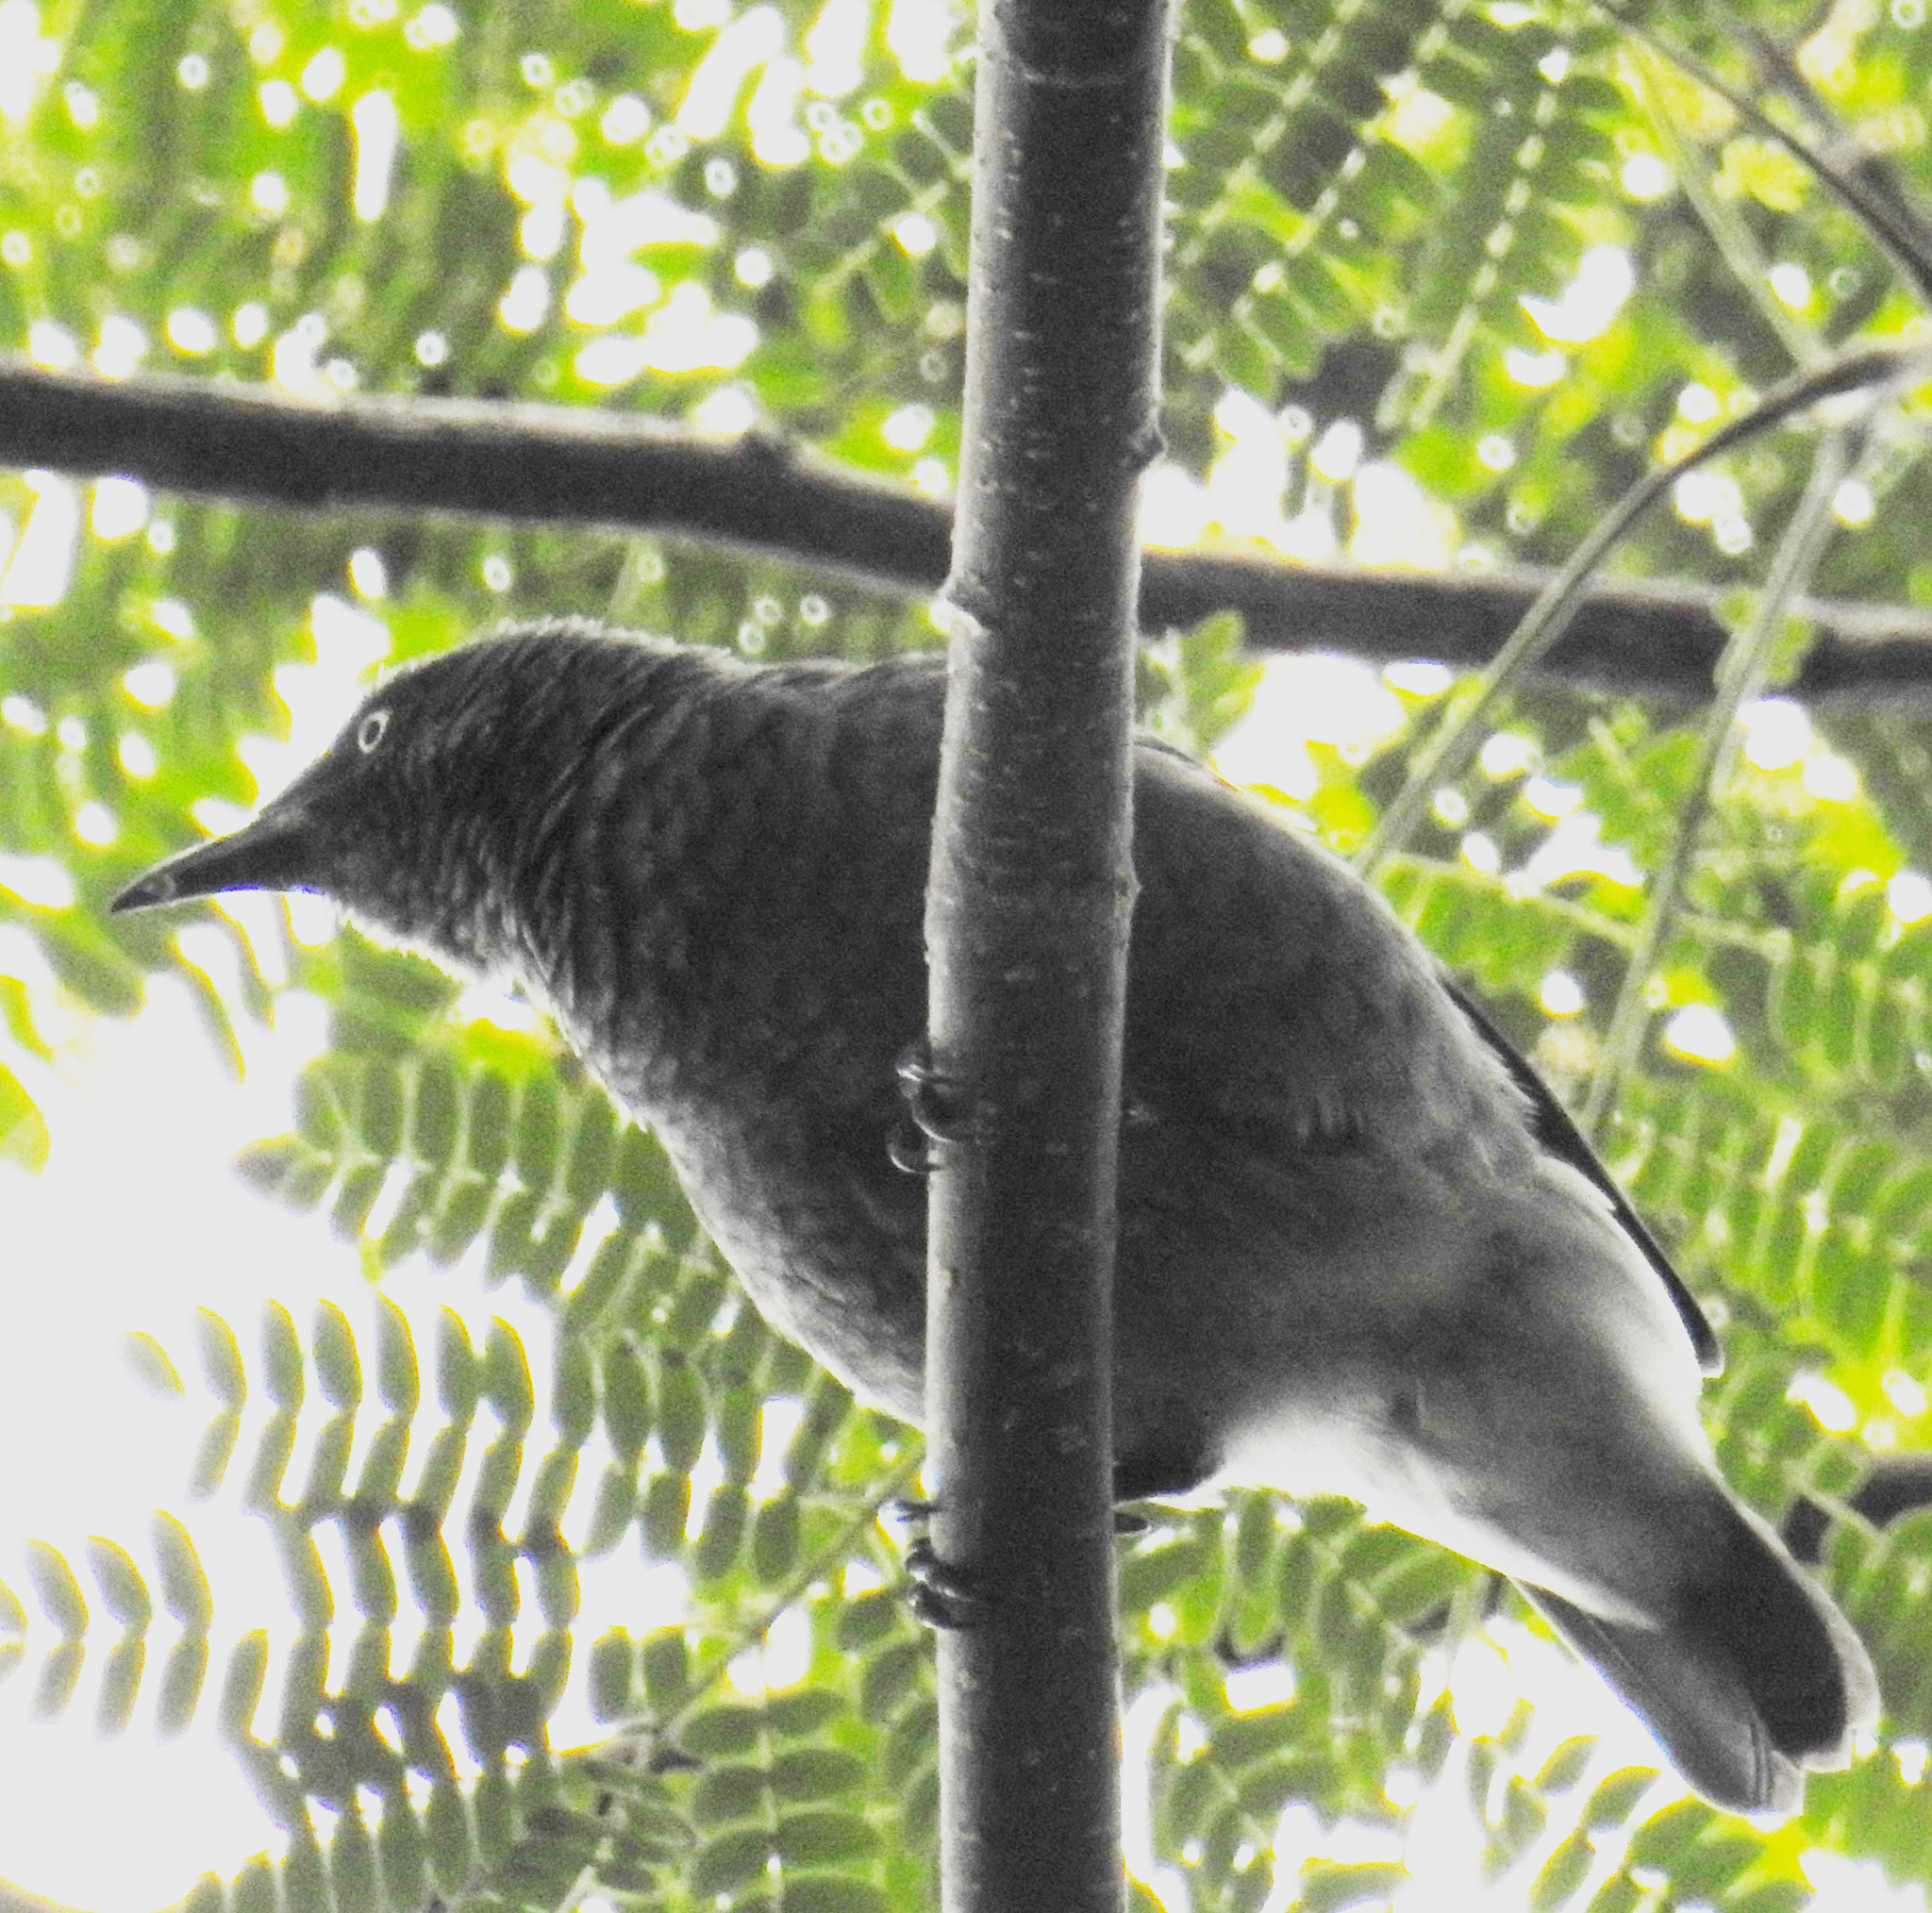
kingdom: Animalia
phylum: Chordata
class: Aves
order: Passeriformes
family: Sturnidae
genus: Aplonis
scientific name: Aplonis cinerascens
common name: Rarotonga starling
